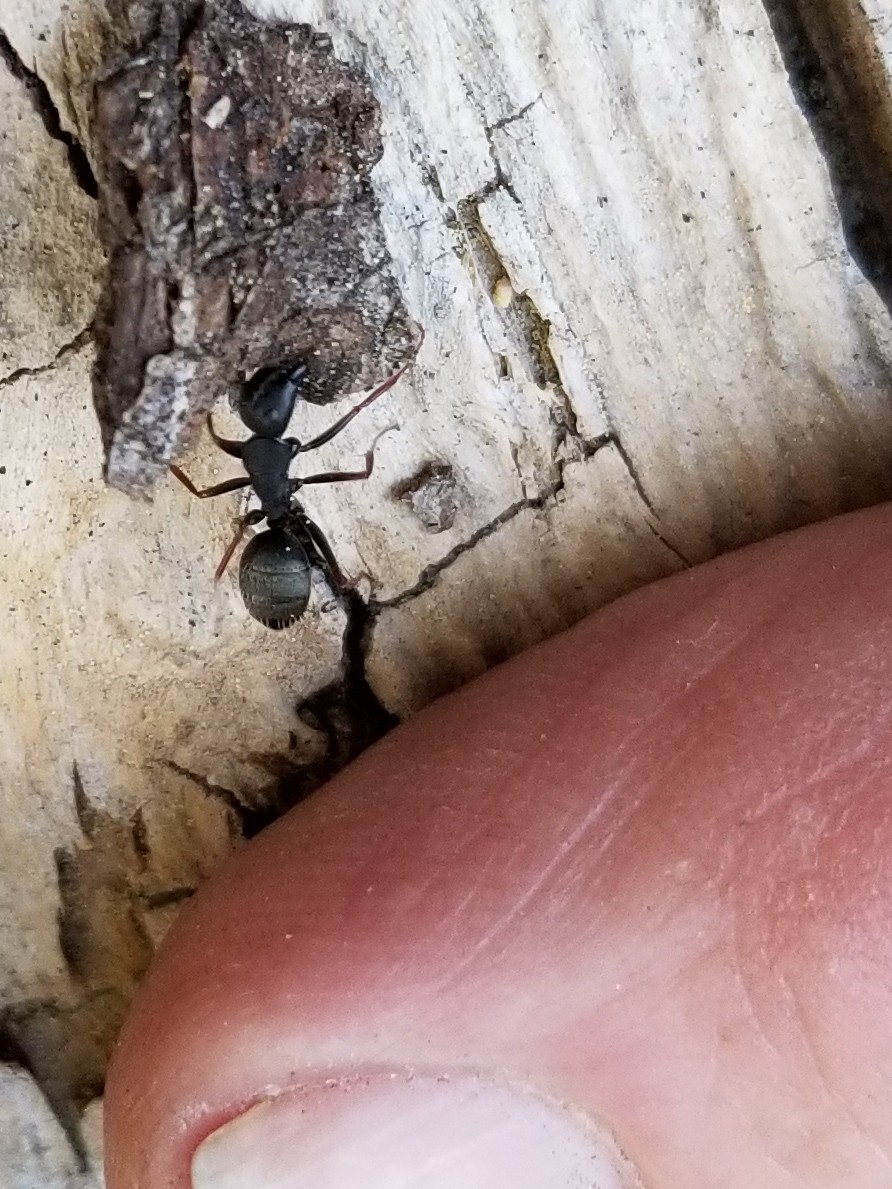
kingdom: Animalia
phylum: Arthropoda
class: Insecta
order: Hymenoptera
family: Formicidae
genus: Camponotus
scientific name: Camponotus modoc
